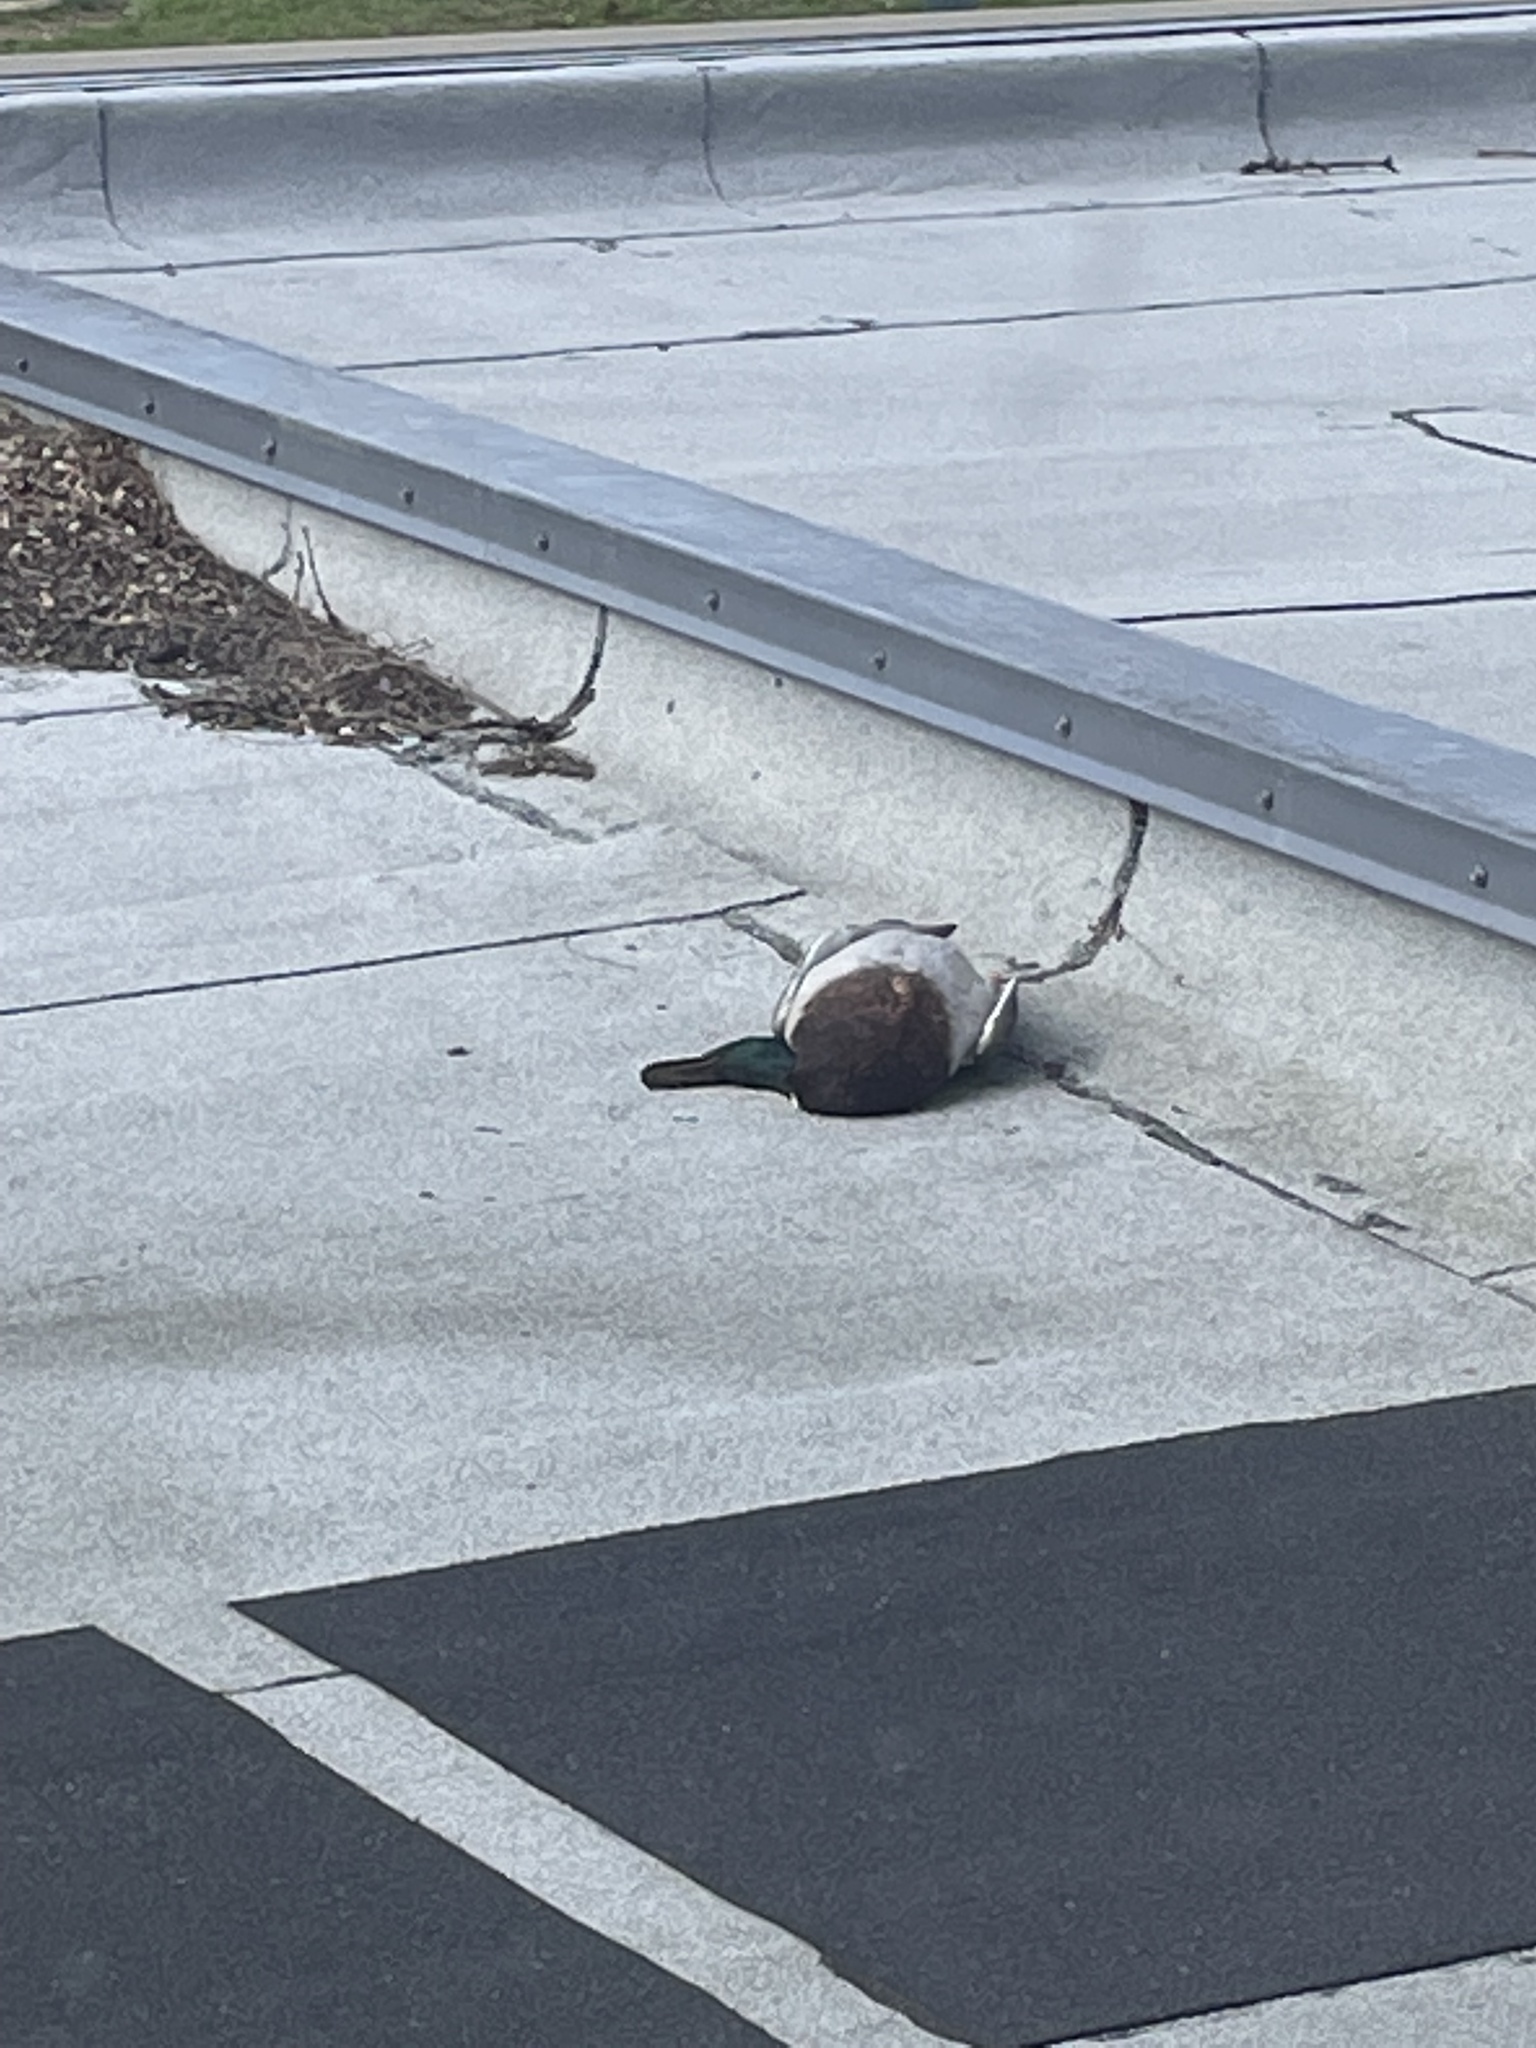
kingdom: Animalia
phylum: Chordata
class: Aves
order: Anseriformes
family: Anatidae
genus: Anas
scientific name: Anas platyrhynchos
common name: Mallard
